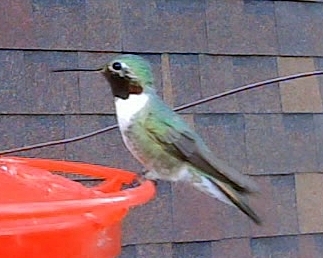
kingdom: Animalia
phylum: Chordata
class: Aves
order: Apodiformes
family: Trochilidae
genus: Selasphorus
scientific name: Selasphorus platycercus
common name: Broad-tailed hummingbird
